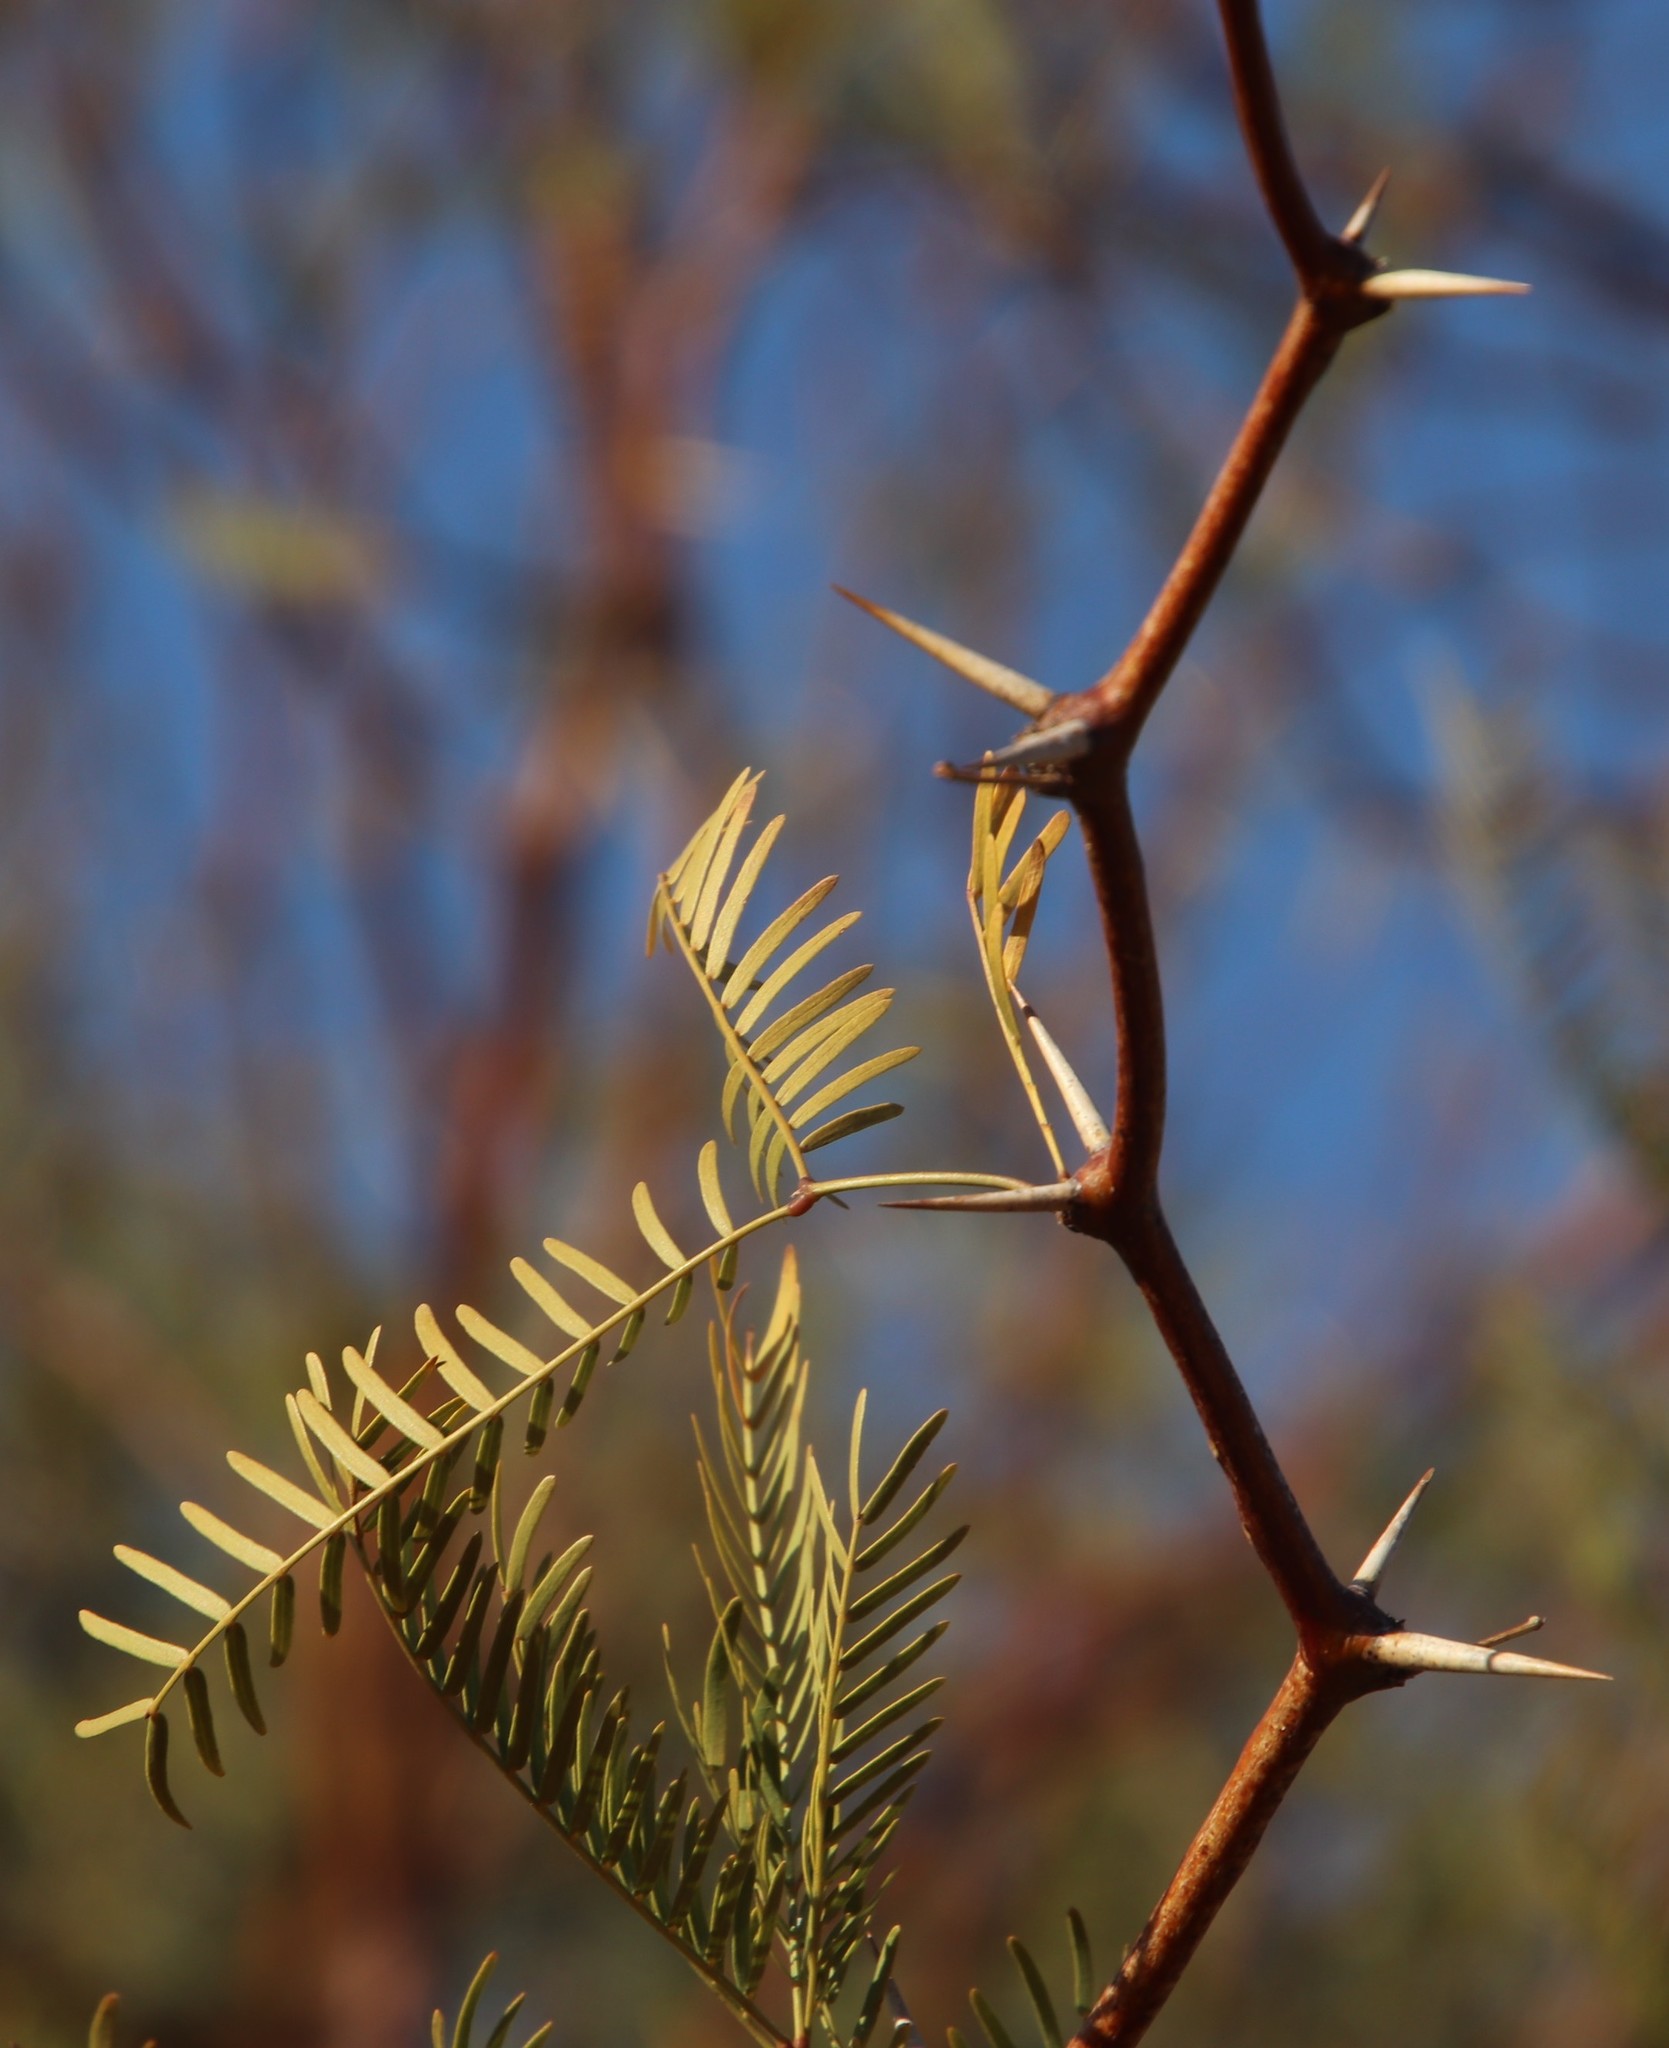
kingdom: Plantae
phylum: Tracheophyta
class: Magnoliopsida
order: Fabales
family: Fabaceae
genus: Prosopis
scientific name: Prosopis pubescens
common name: Screw-bean
